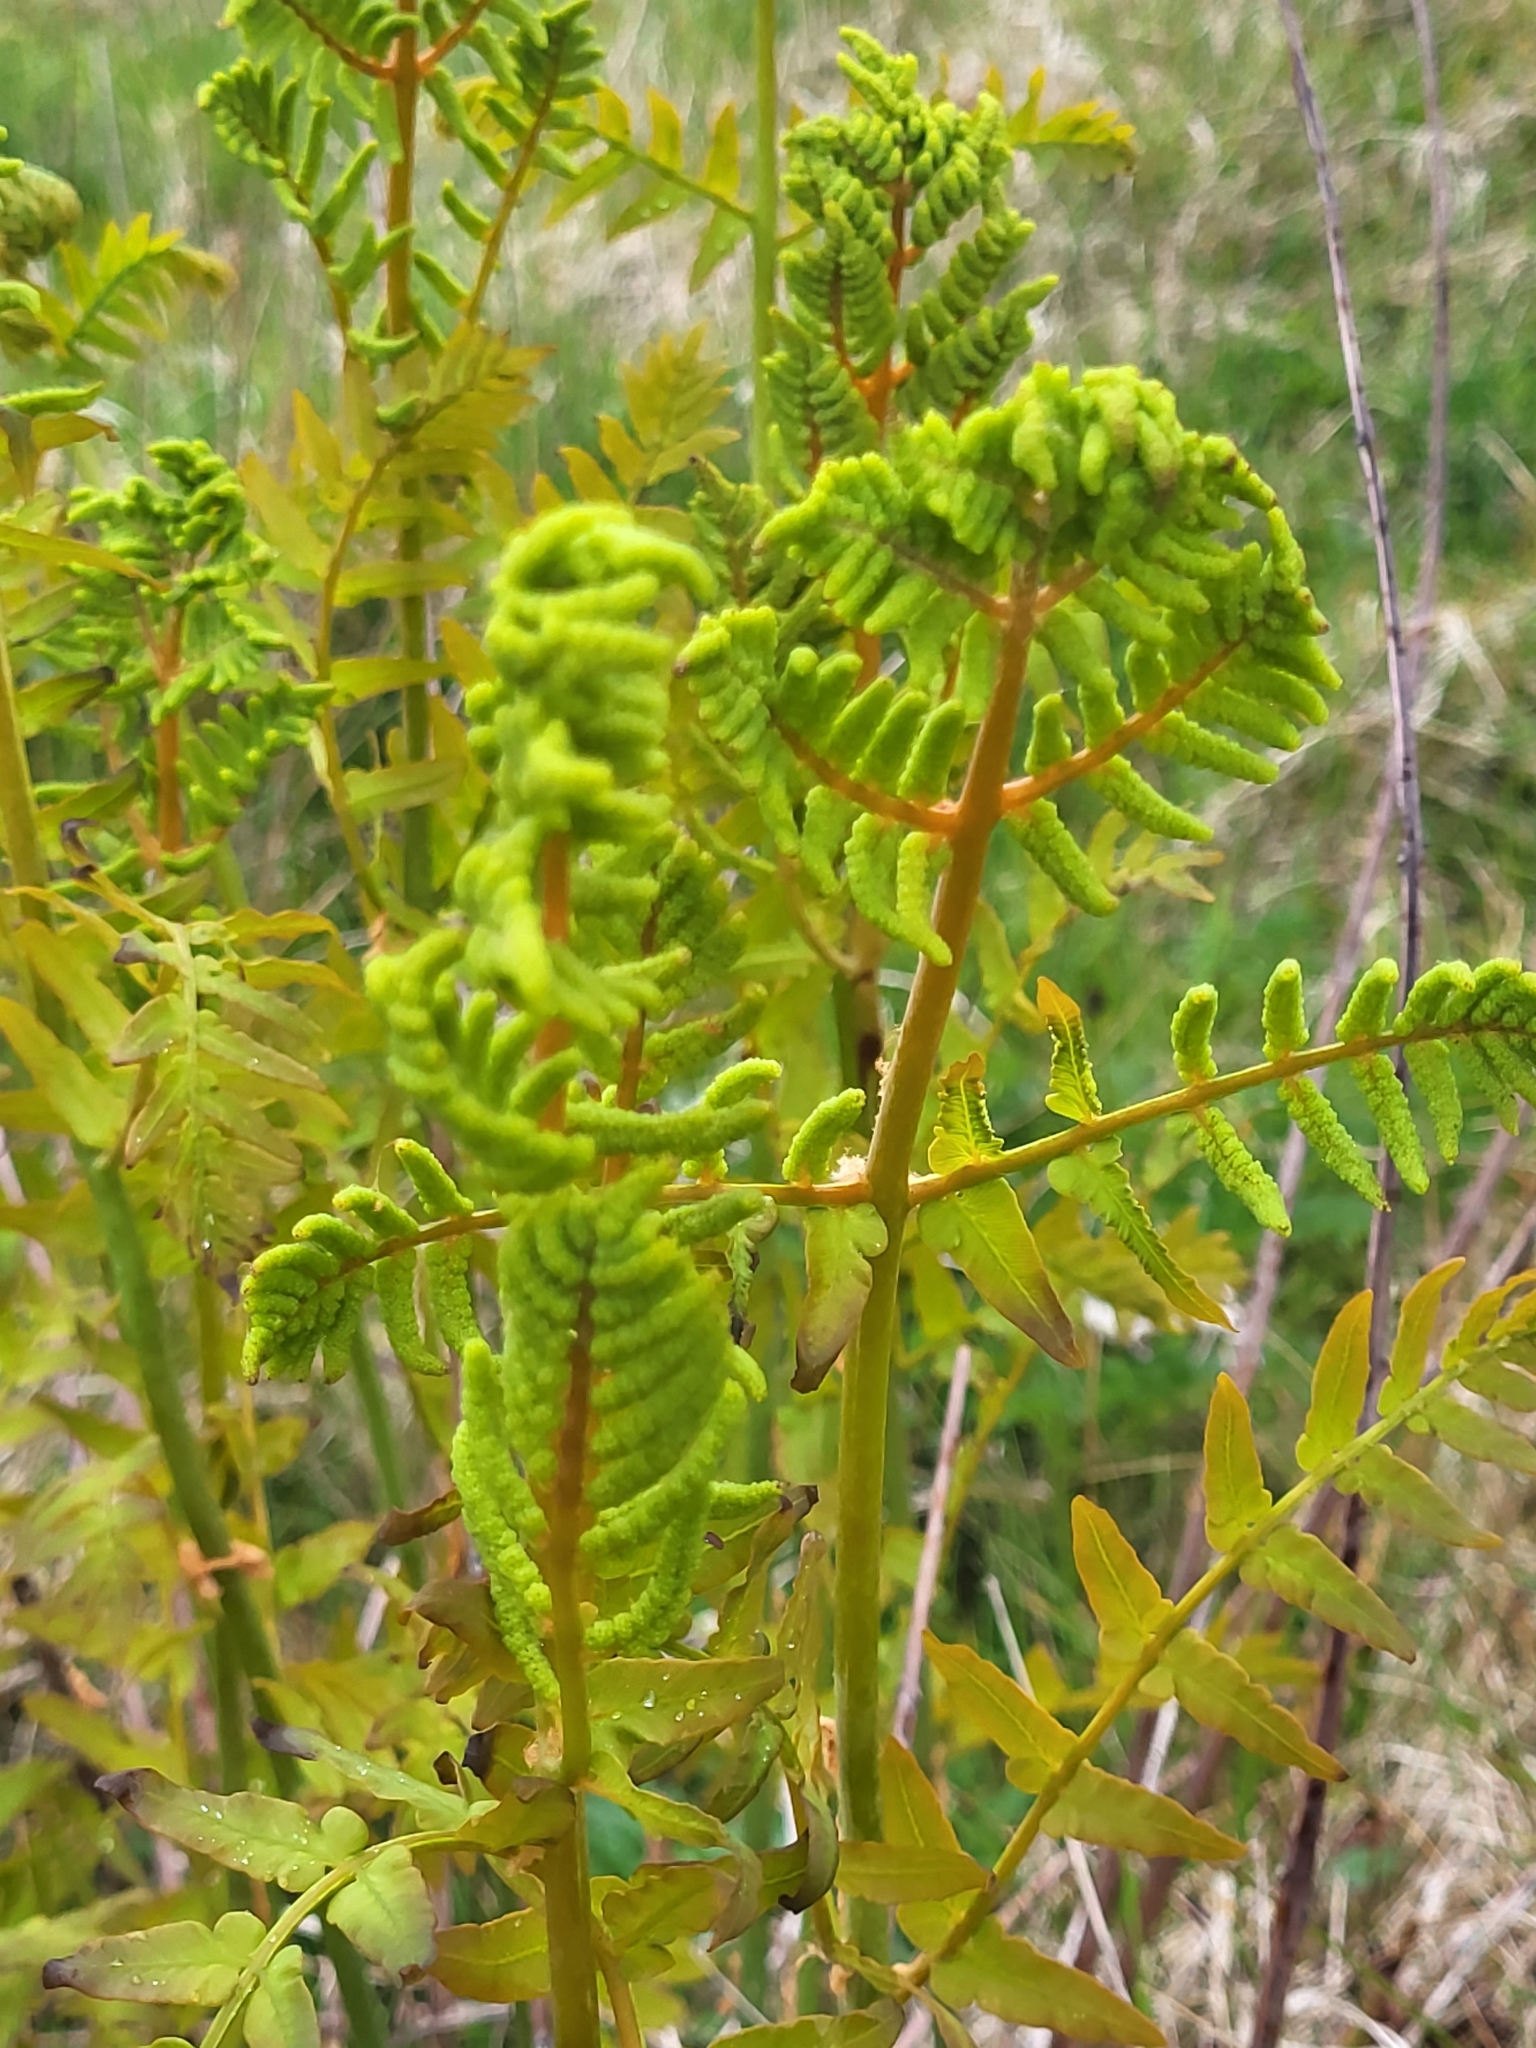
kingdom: Plantae
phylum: Tracheophyta
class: Polypodiopsida
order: Osmundales
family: Osmundaceae
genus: Osmunda
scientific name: Osmunda regalis
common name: Royal fern
